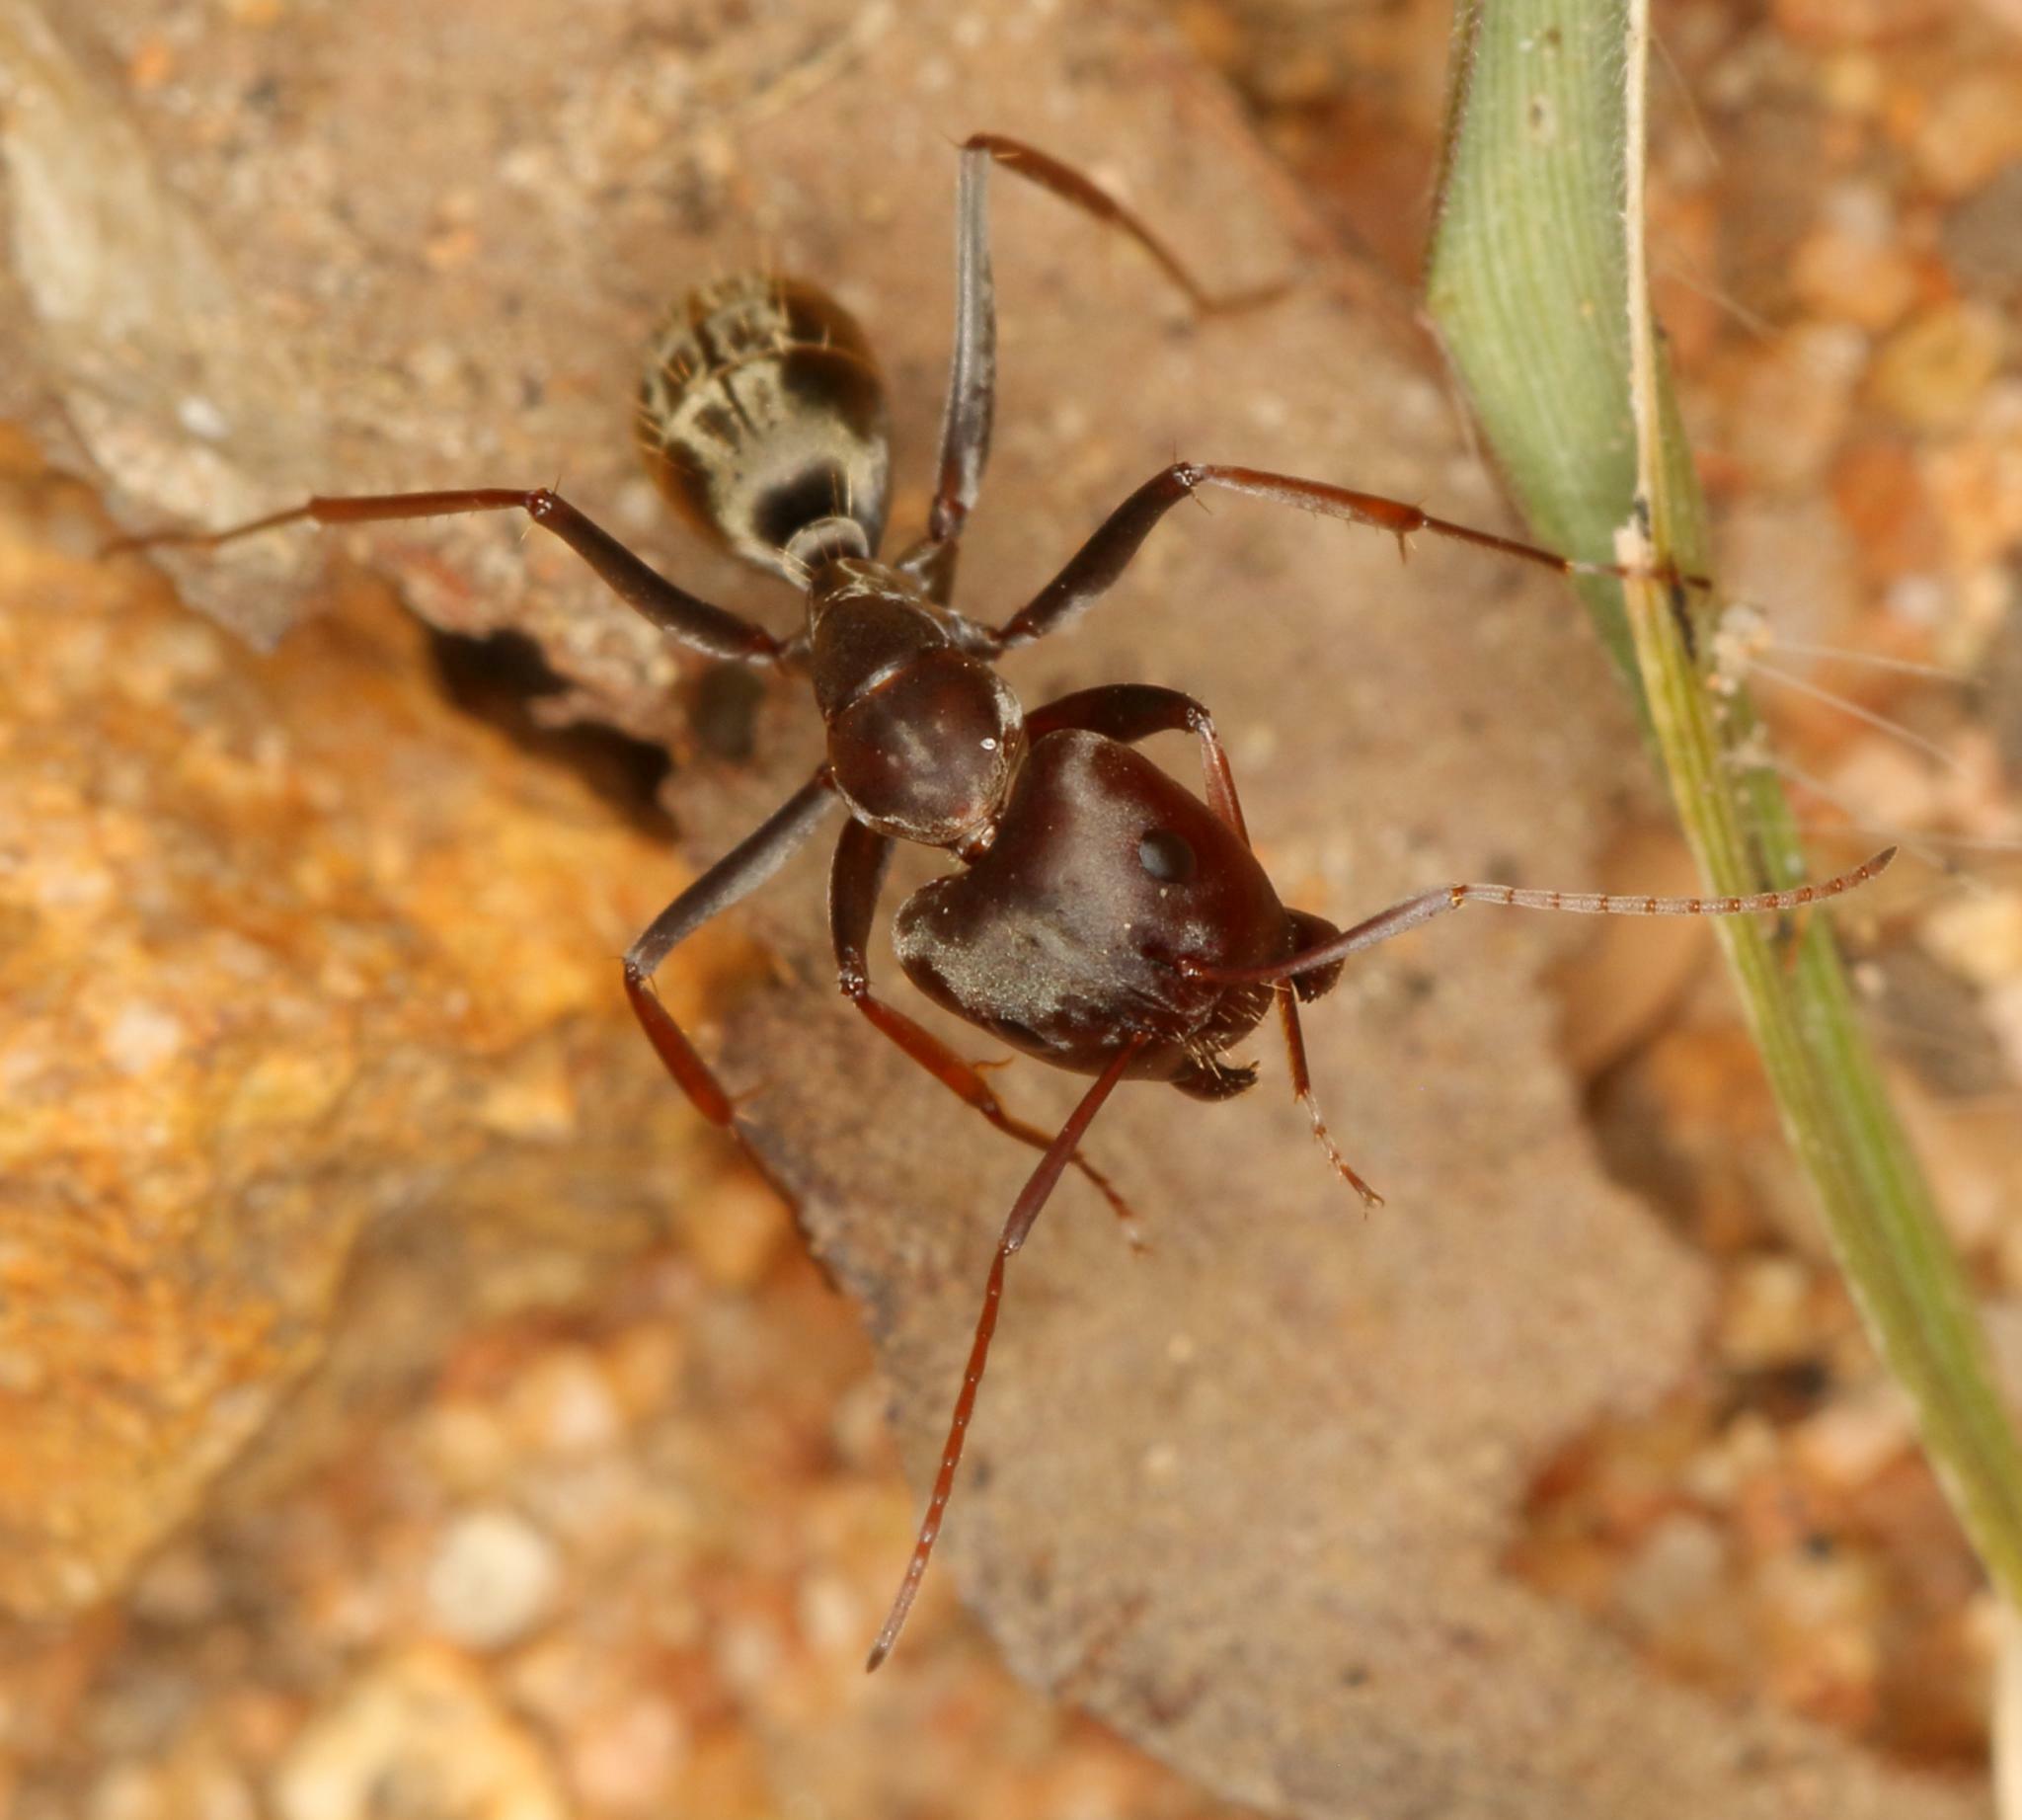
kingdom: Animalia
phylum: Arthropoda
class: Insecta
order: Hymenoptera
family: Formicidae
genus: Camponotus
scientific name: Camponotus vestitus
